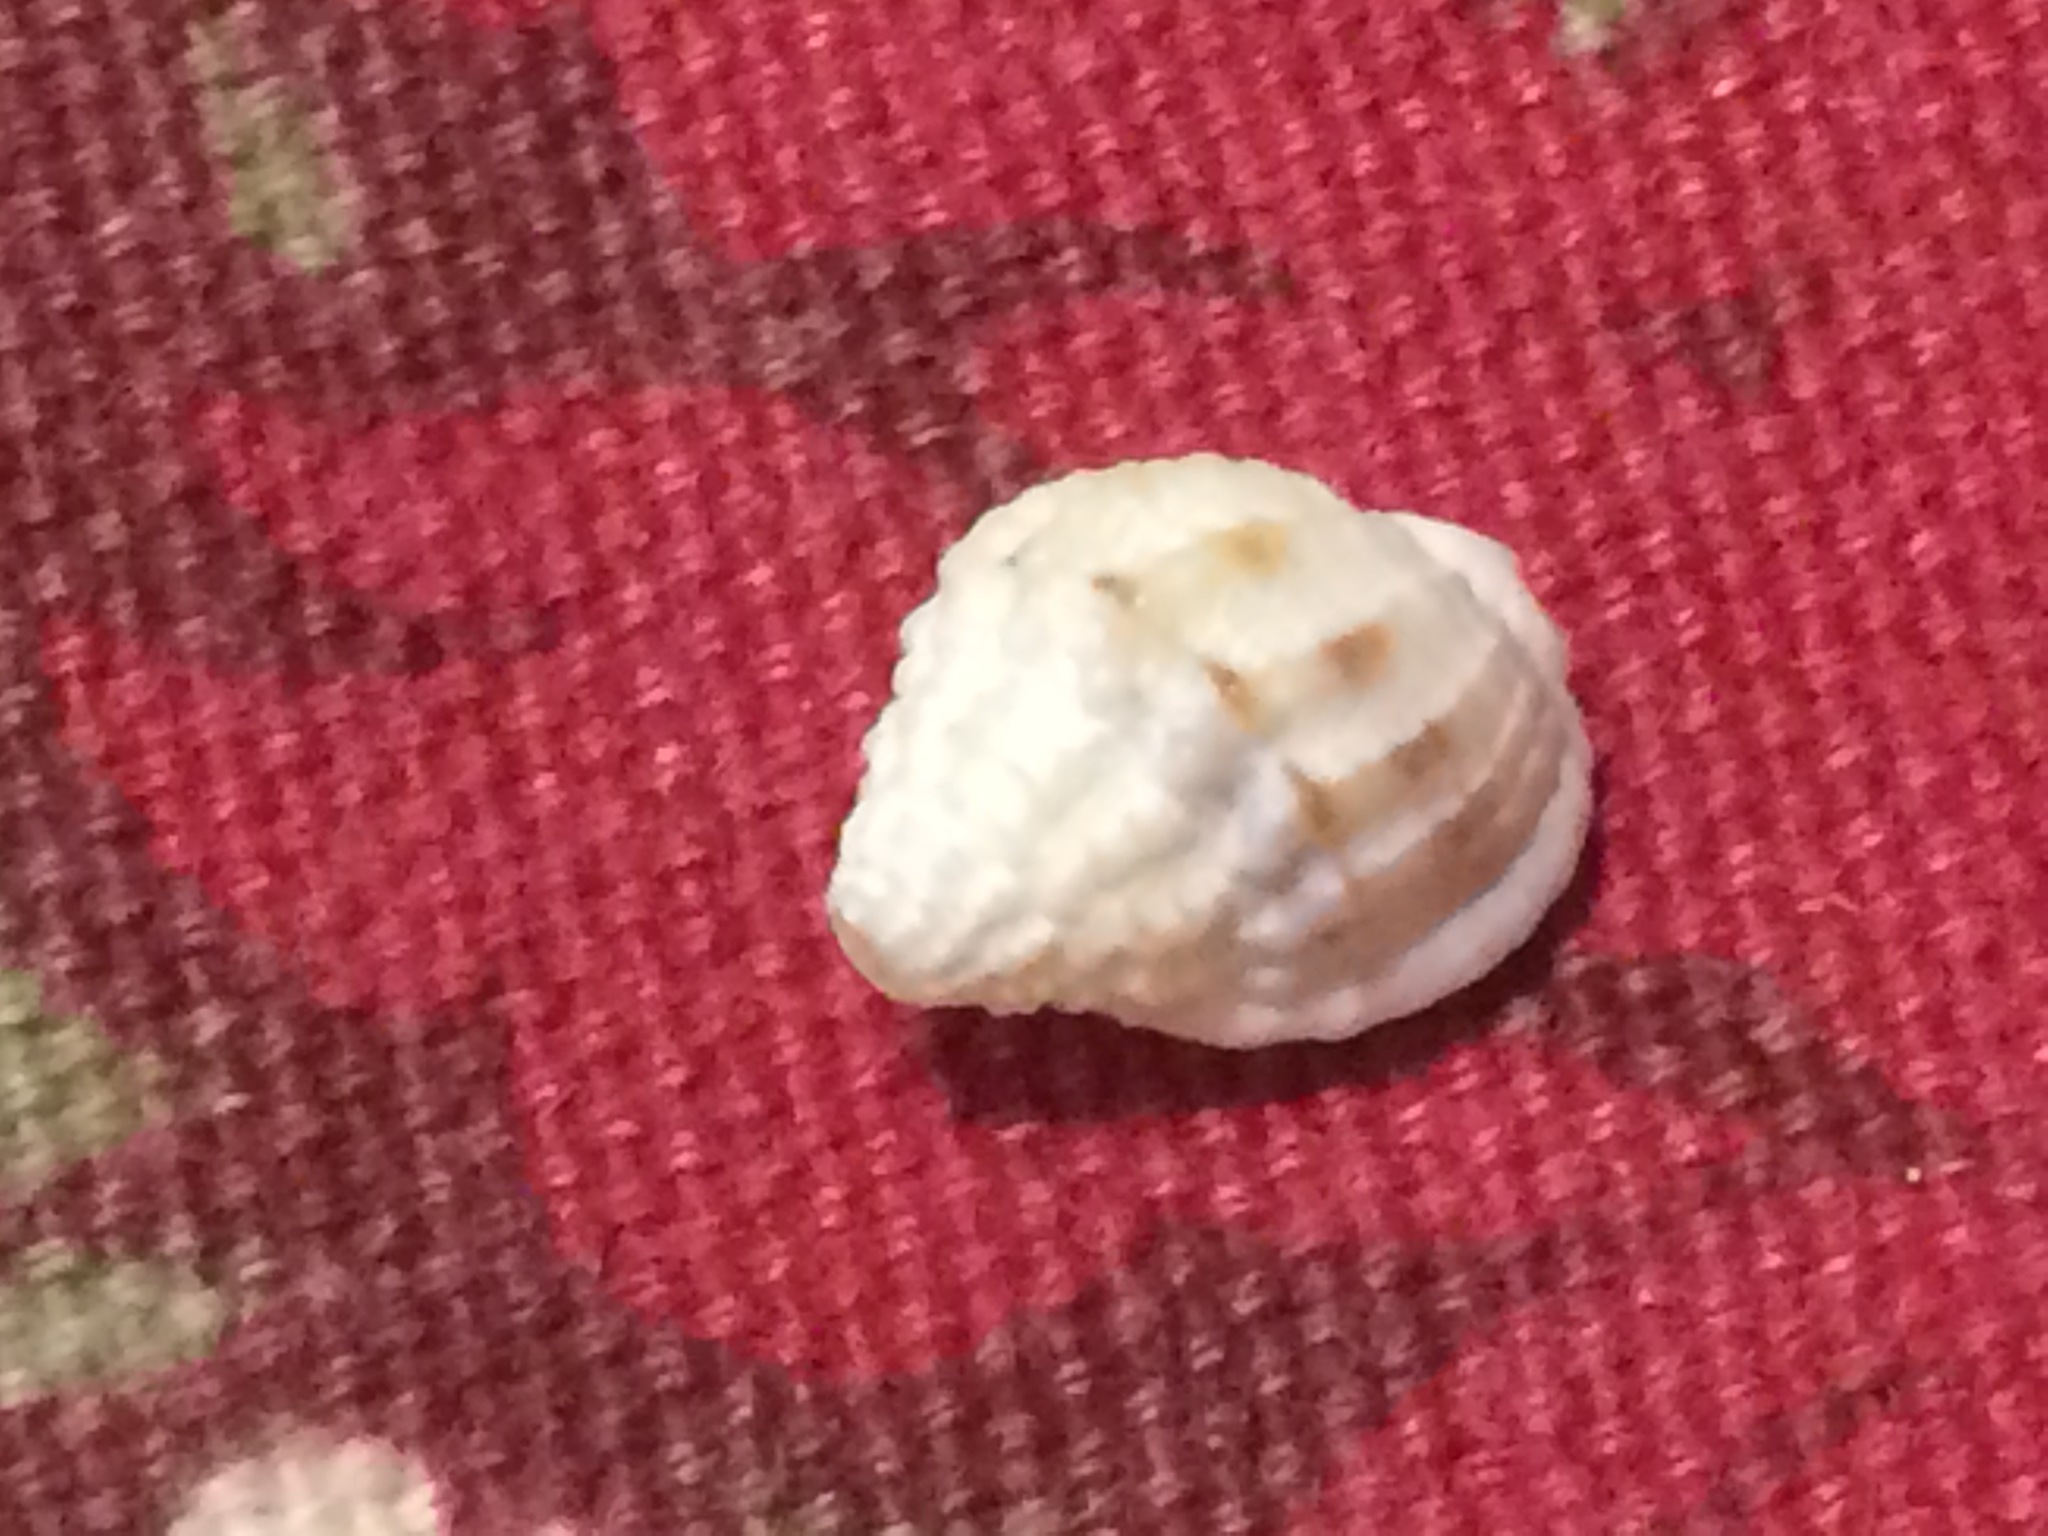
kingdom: Animalia
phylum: Mollusca
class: Gastropoda
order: Neogastropoda
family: Nassariidae
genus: Phrontis
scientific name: Phrontis vibex
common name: Bruised nassa
